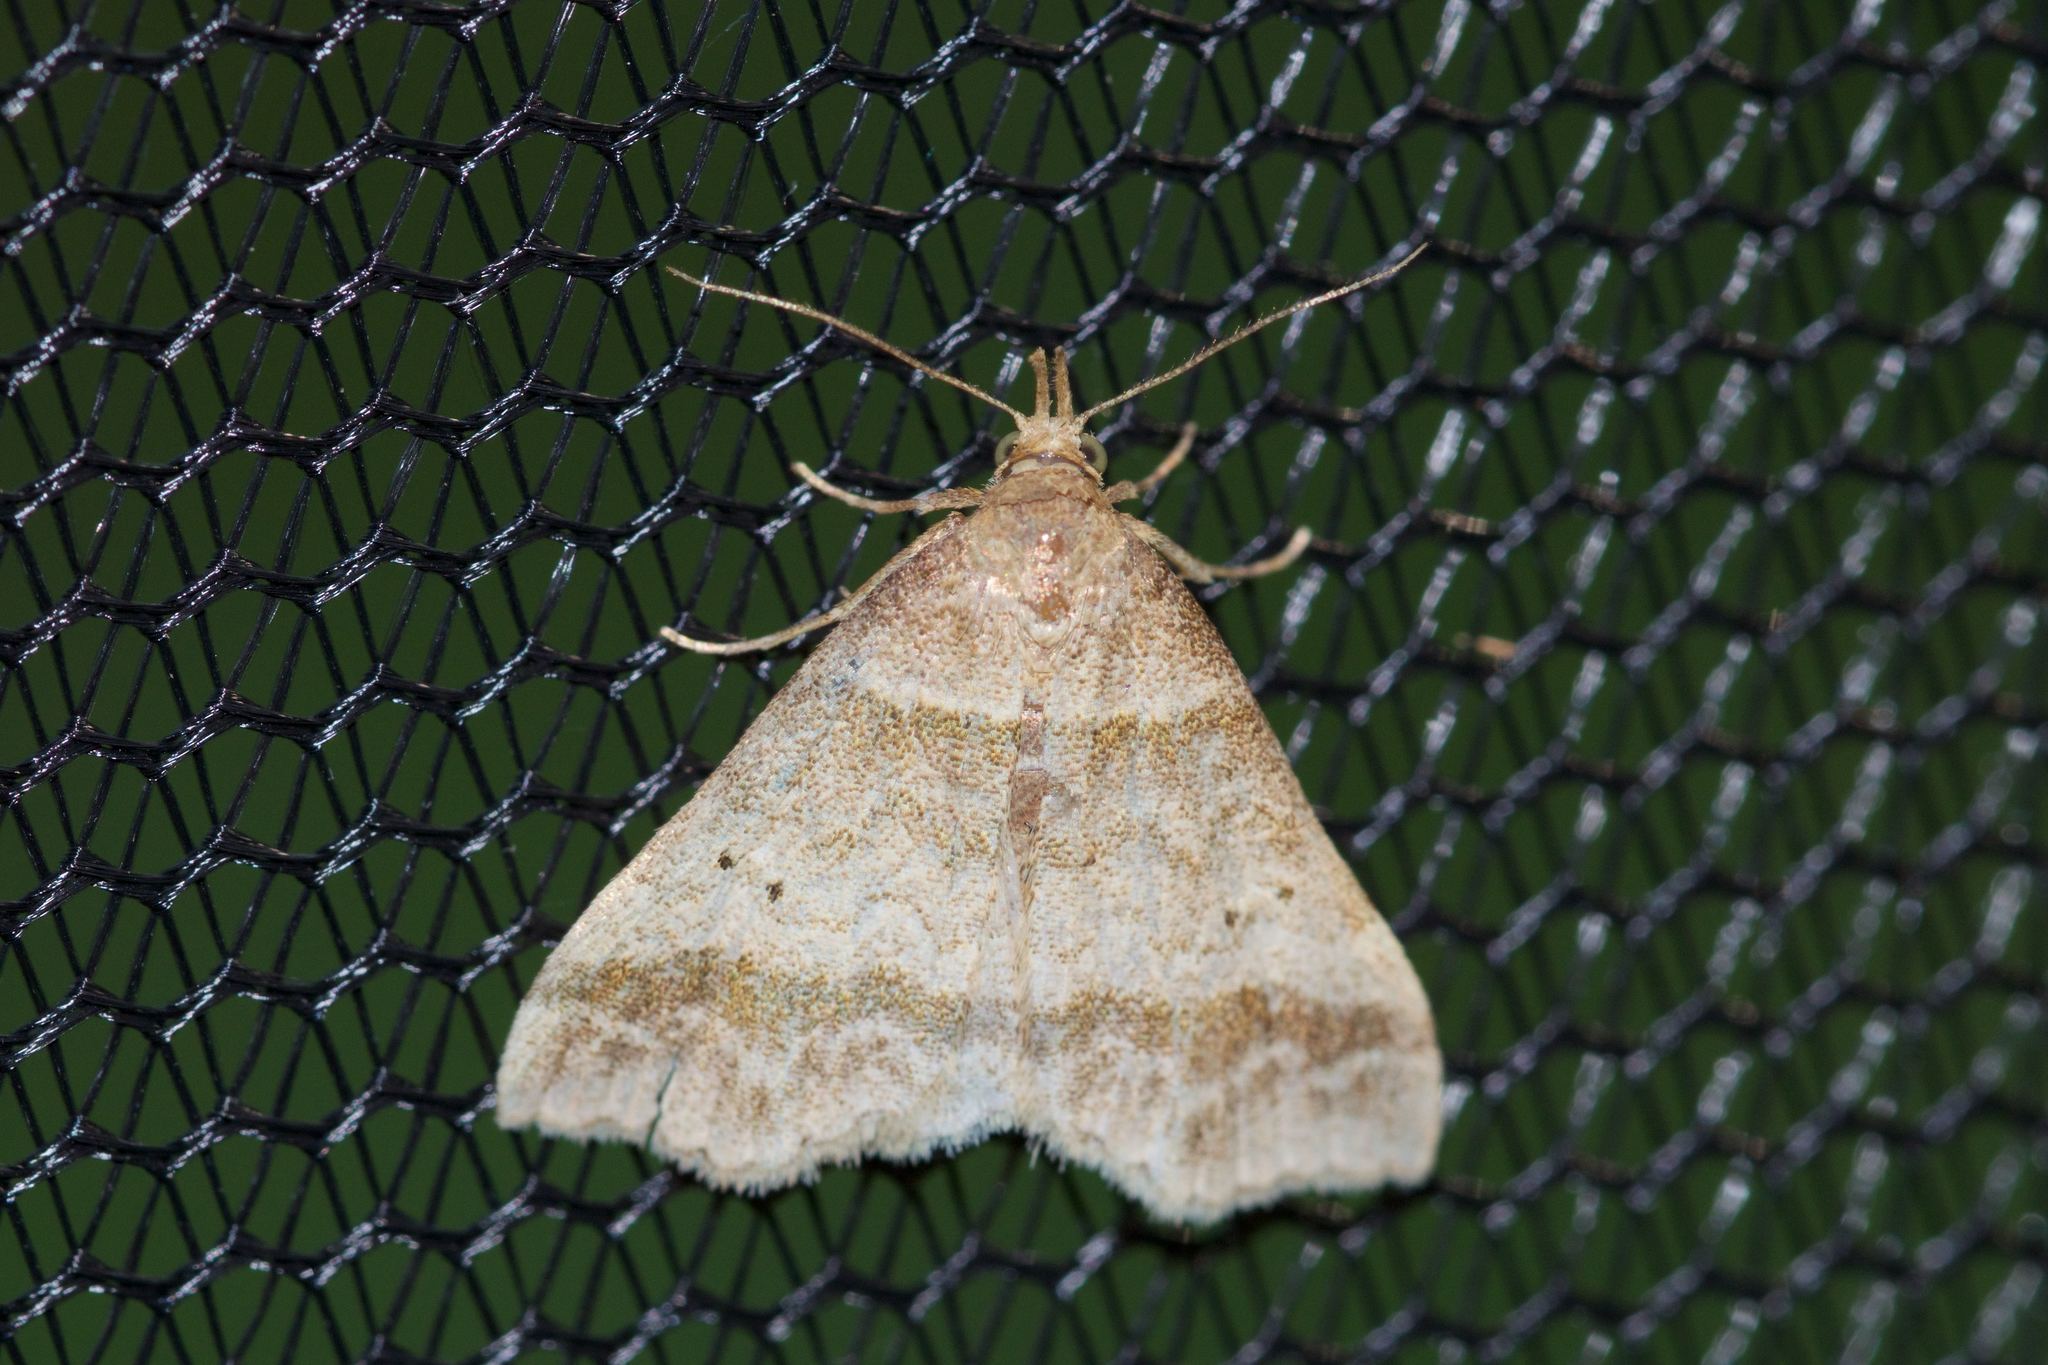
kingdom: Animalia
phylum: Arthropoda
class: Insecta
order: Lepidoptera
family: Erebidae
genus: Phaeolita
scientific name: Phaeolita pyramusalis
